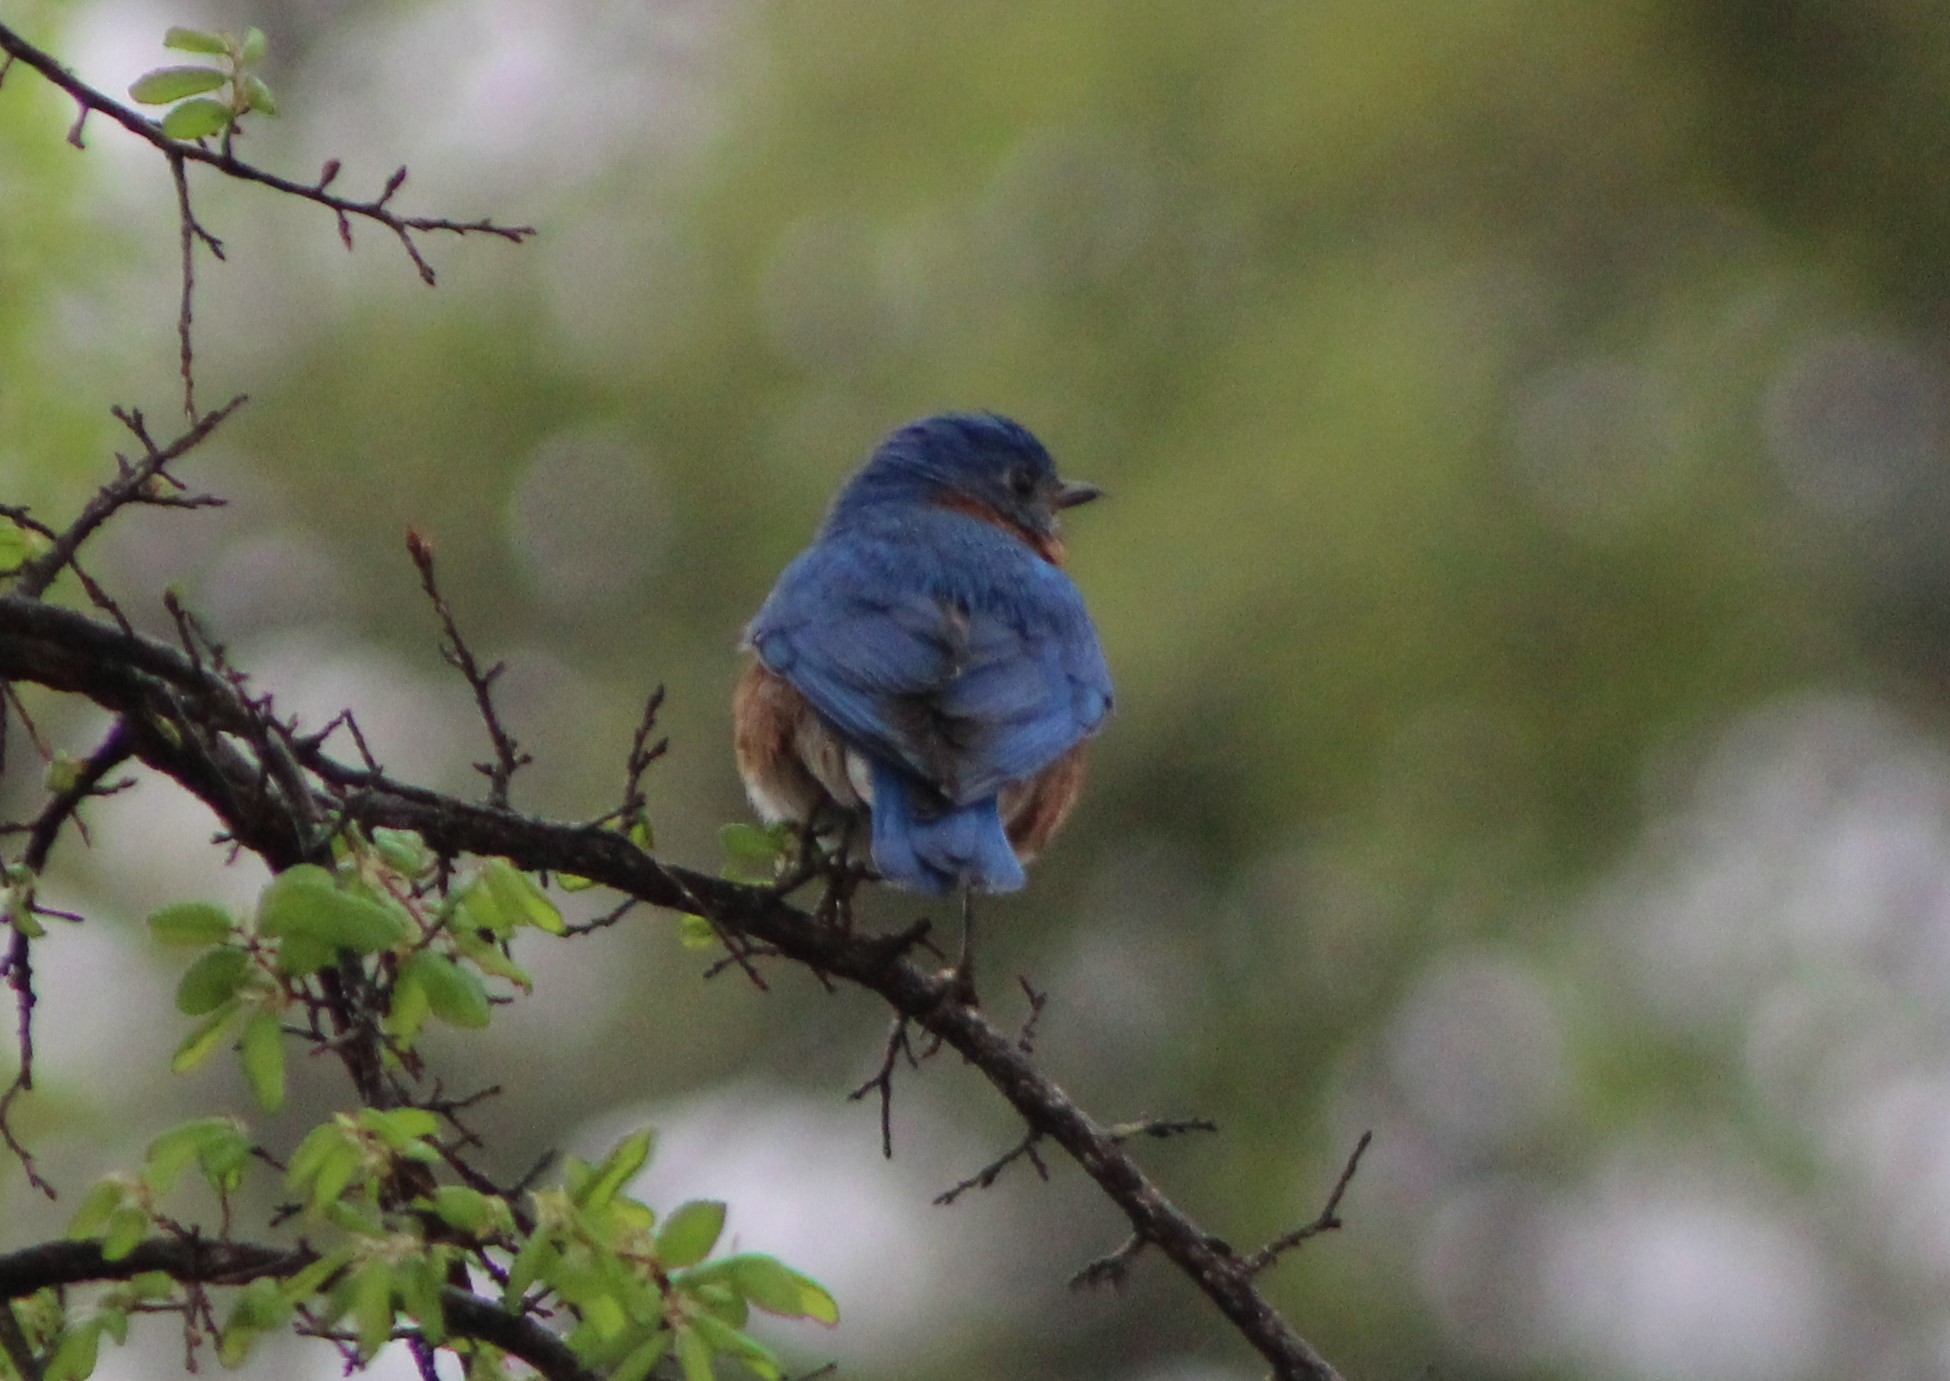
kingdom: Animalia
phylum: Chordata
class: Aves
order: Passeriformes
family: Turdidae
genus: Sialia
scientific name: Sialia sialis
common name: Eastern bluebird
